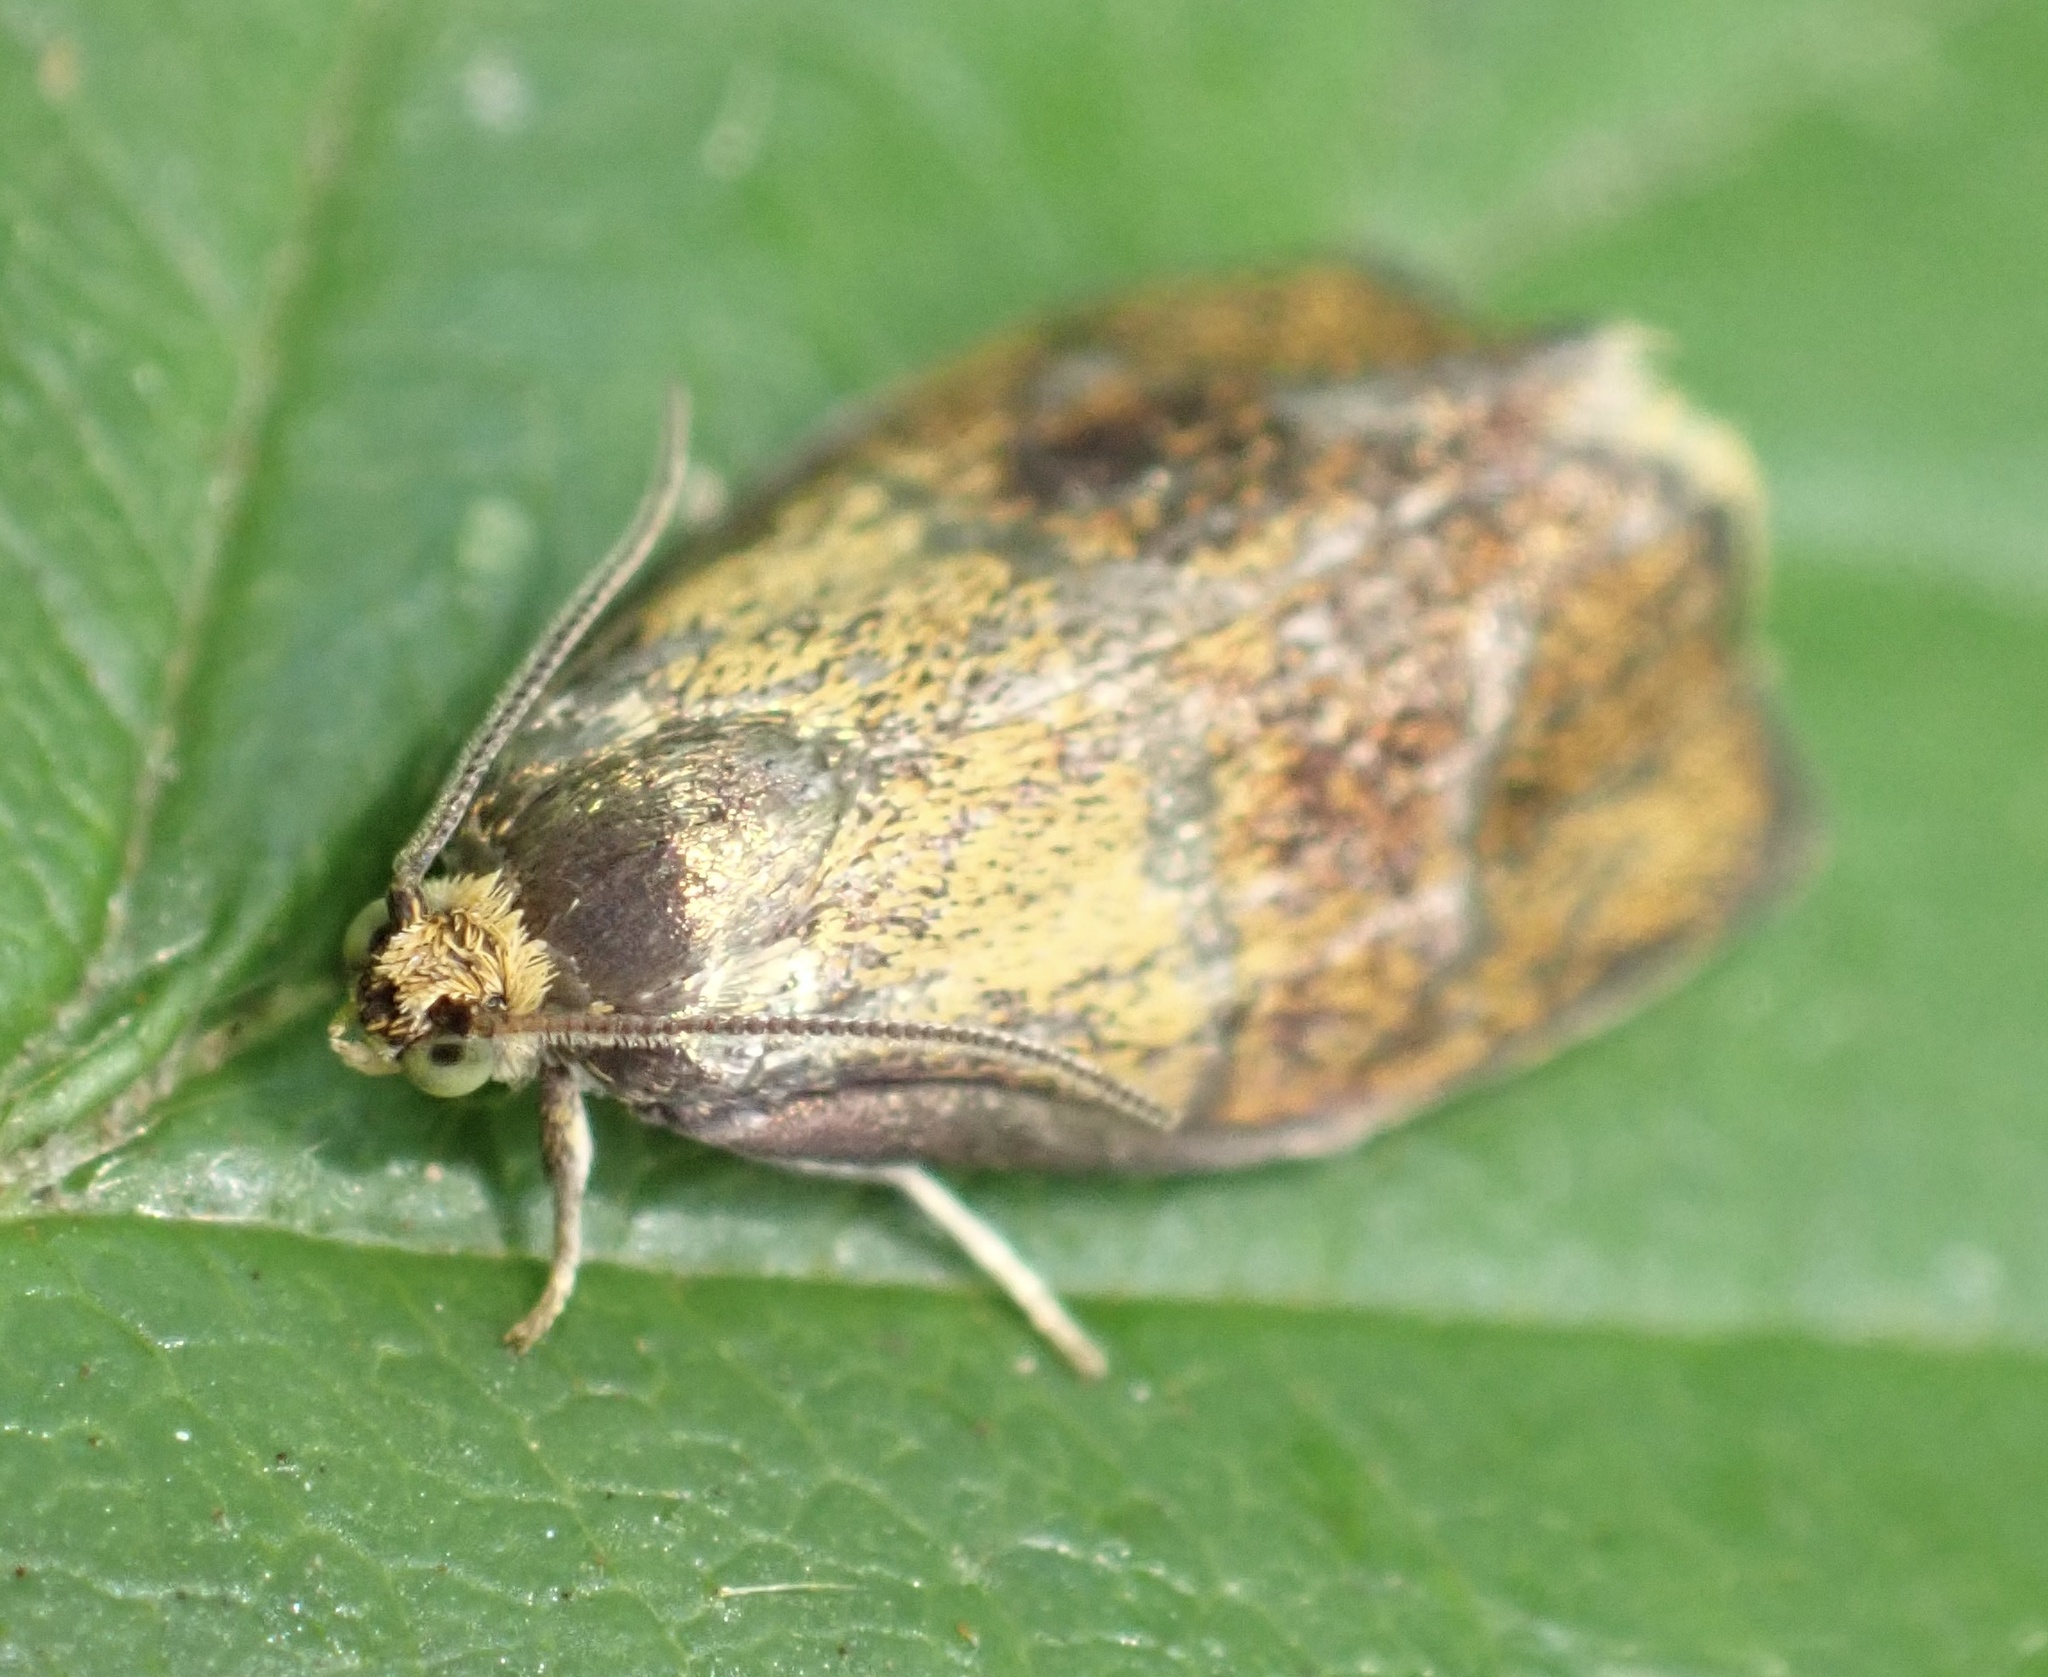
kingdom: Animalia
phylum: Arthropoda
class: Insecta
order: Lepidoptera
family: Tortricidae
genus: Ptycholoma
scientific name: Ptycholoma lecheana
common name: Leches twist moth
